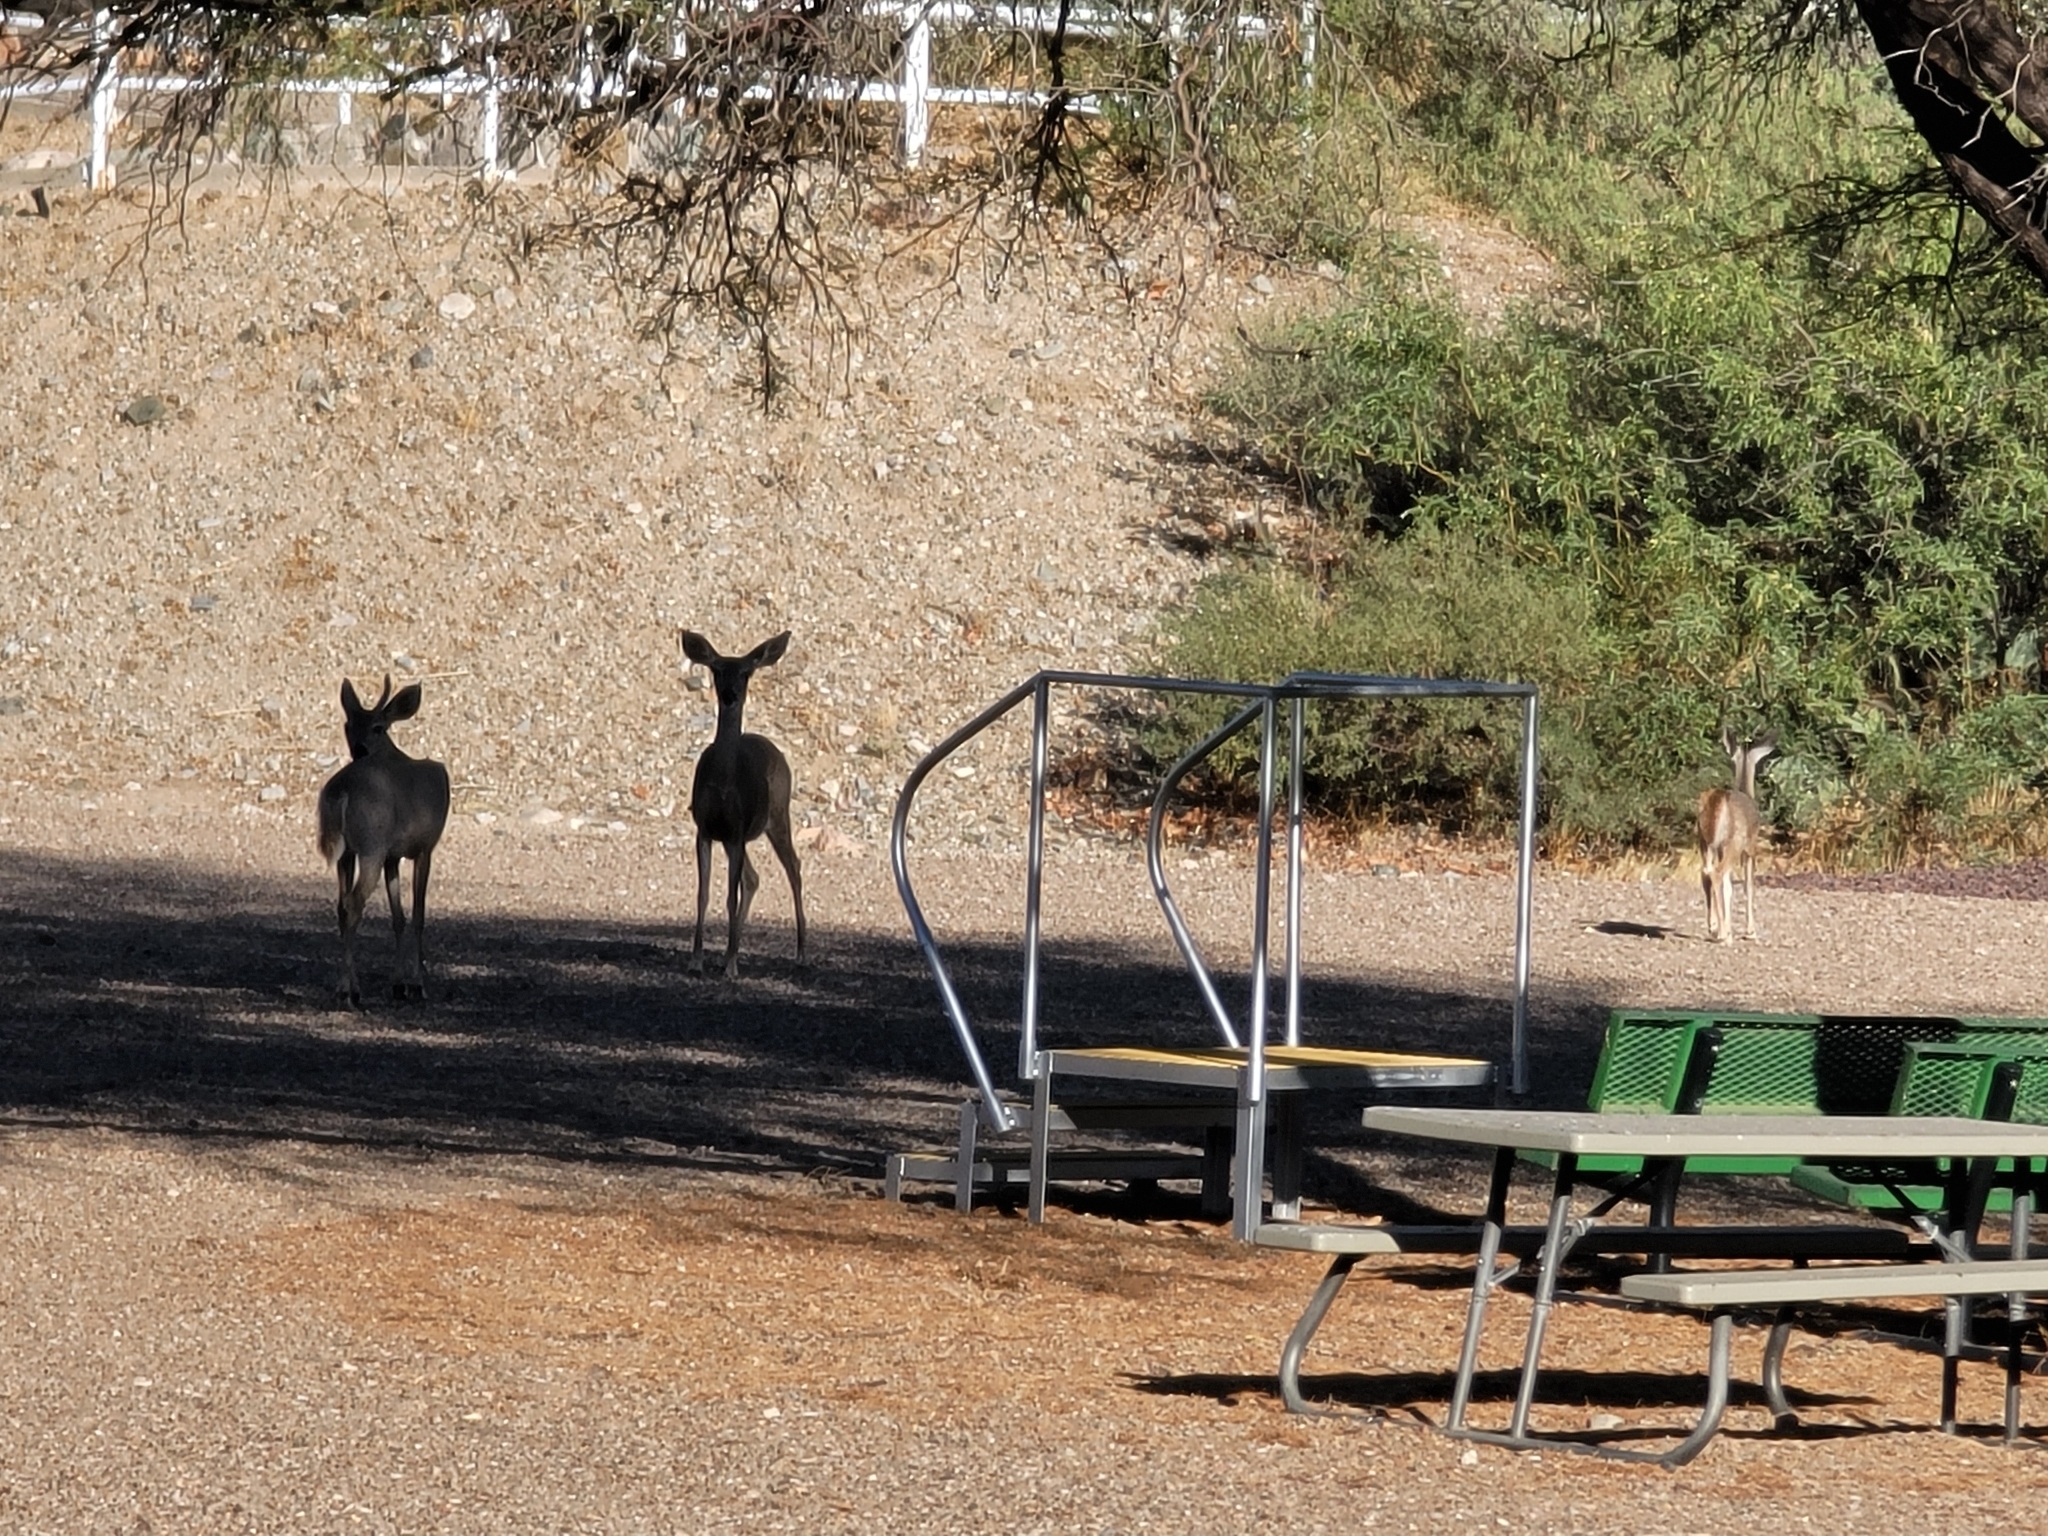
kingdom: Animalia
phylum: Chordata
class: Mammalia
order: Artiodactyla
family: Cervidae
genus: Odocoileus
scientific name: Odocoileus virginianus
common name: White-tailed deer
